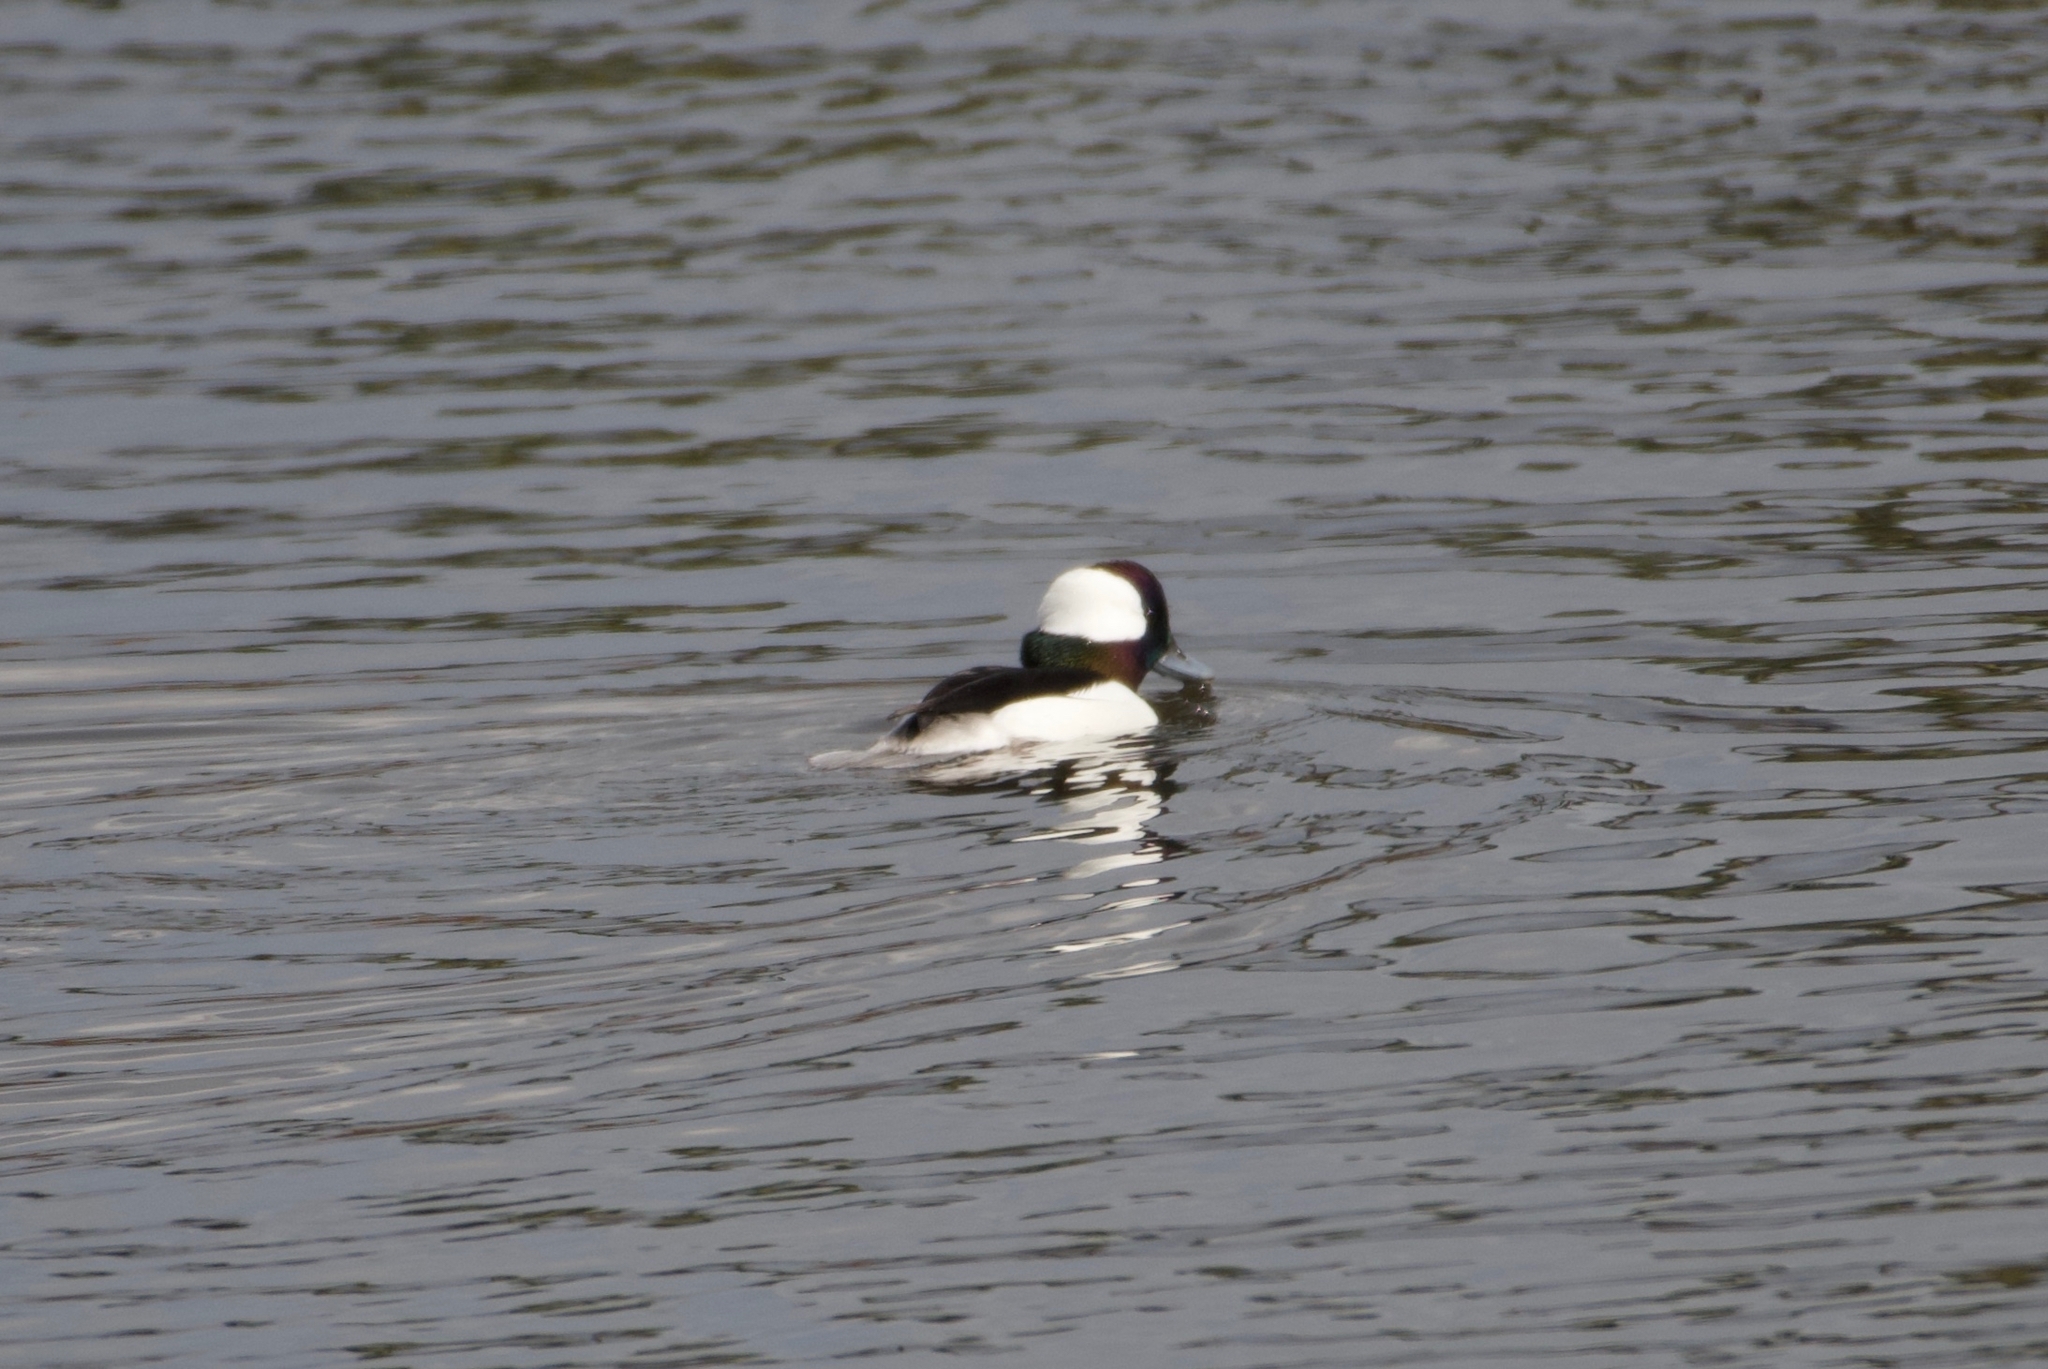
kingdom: Animalia
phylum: Chordata
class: Aves
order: Anseriformes
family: Anatidae
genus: Bucephala
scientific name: Bucephala albeola
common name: Bufflehead
